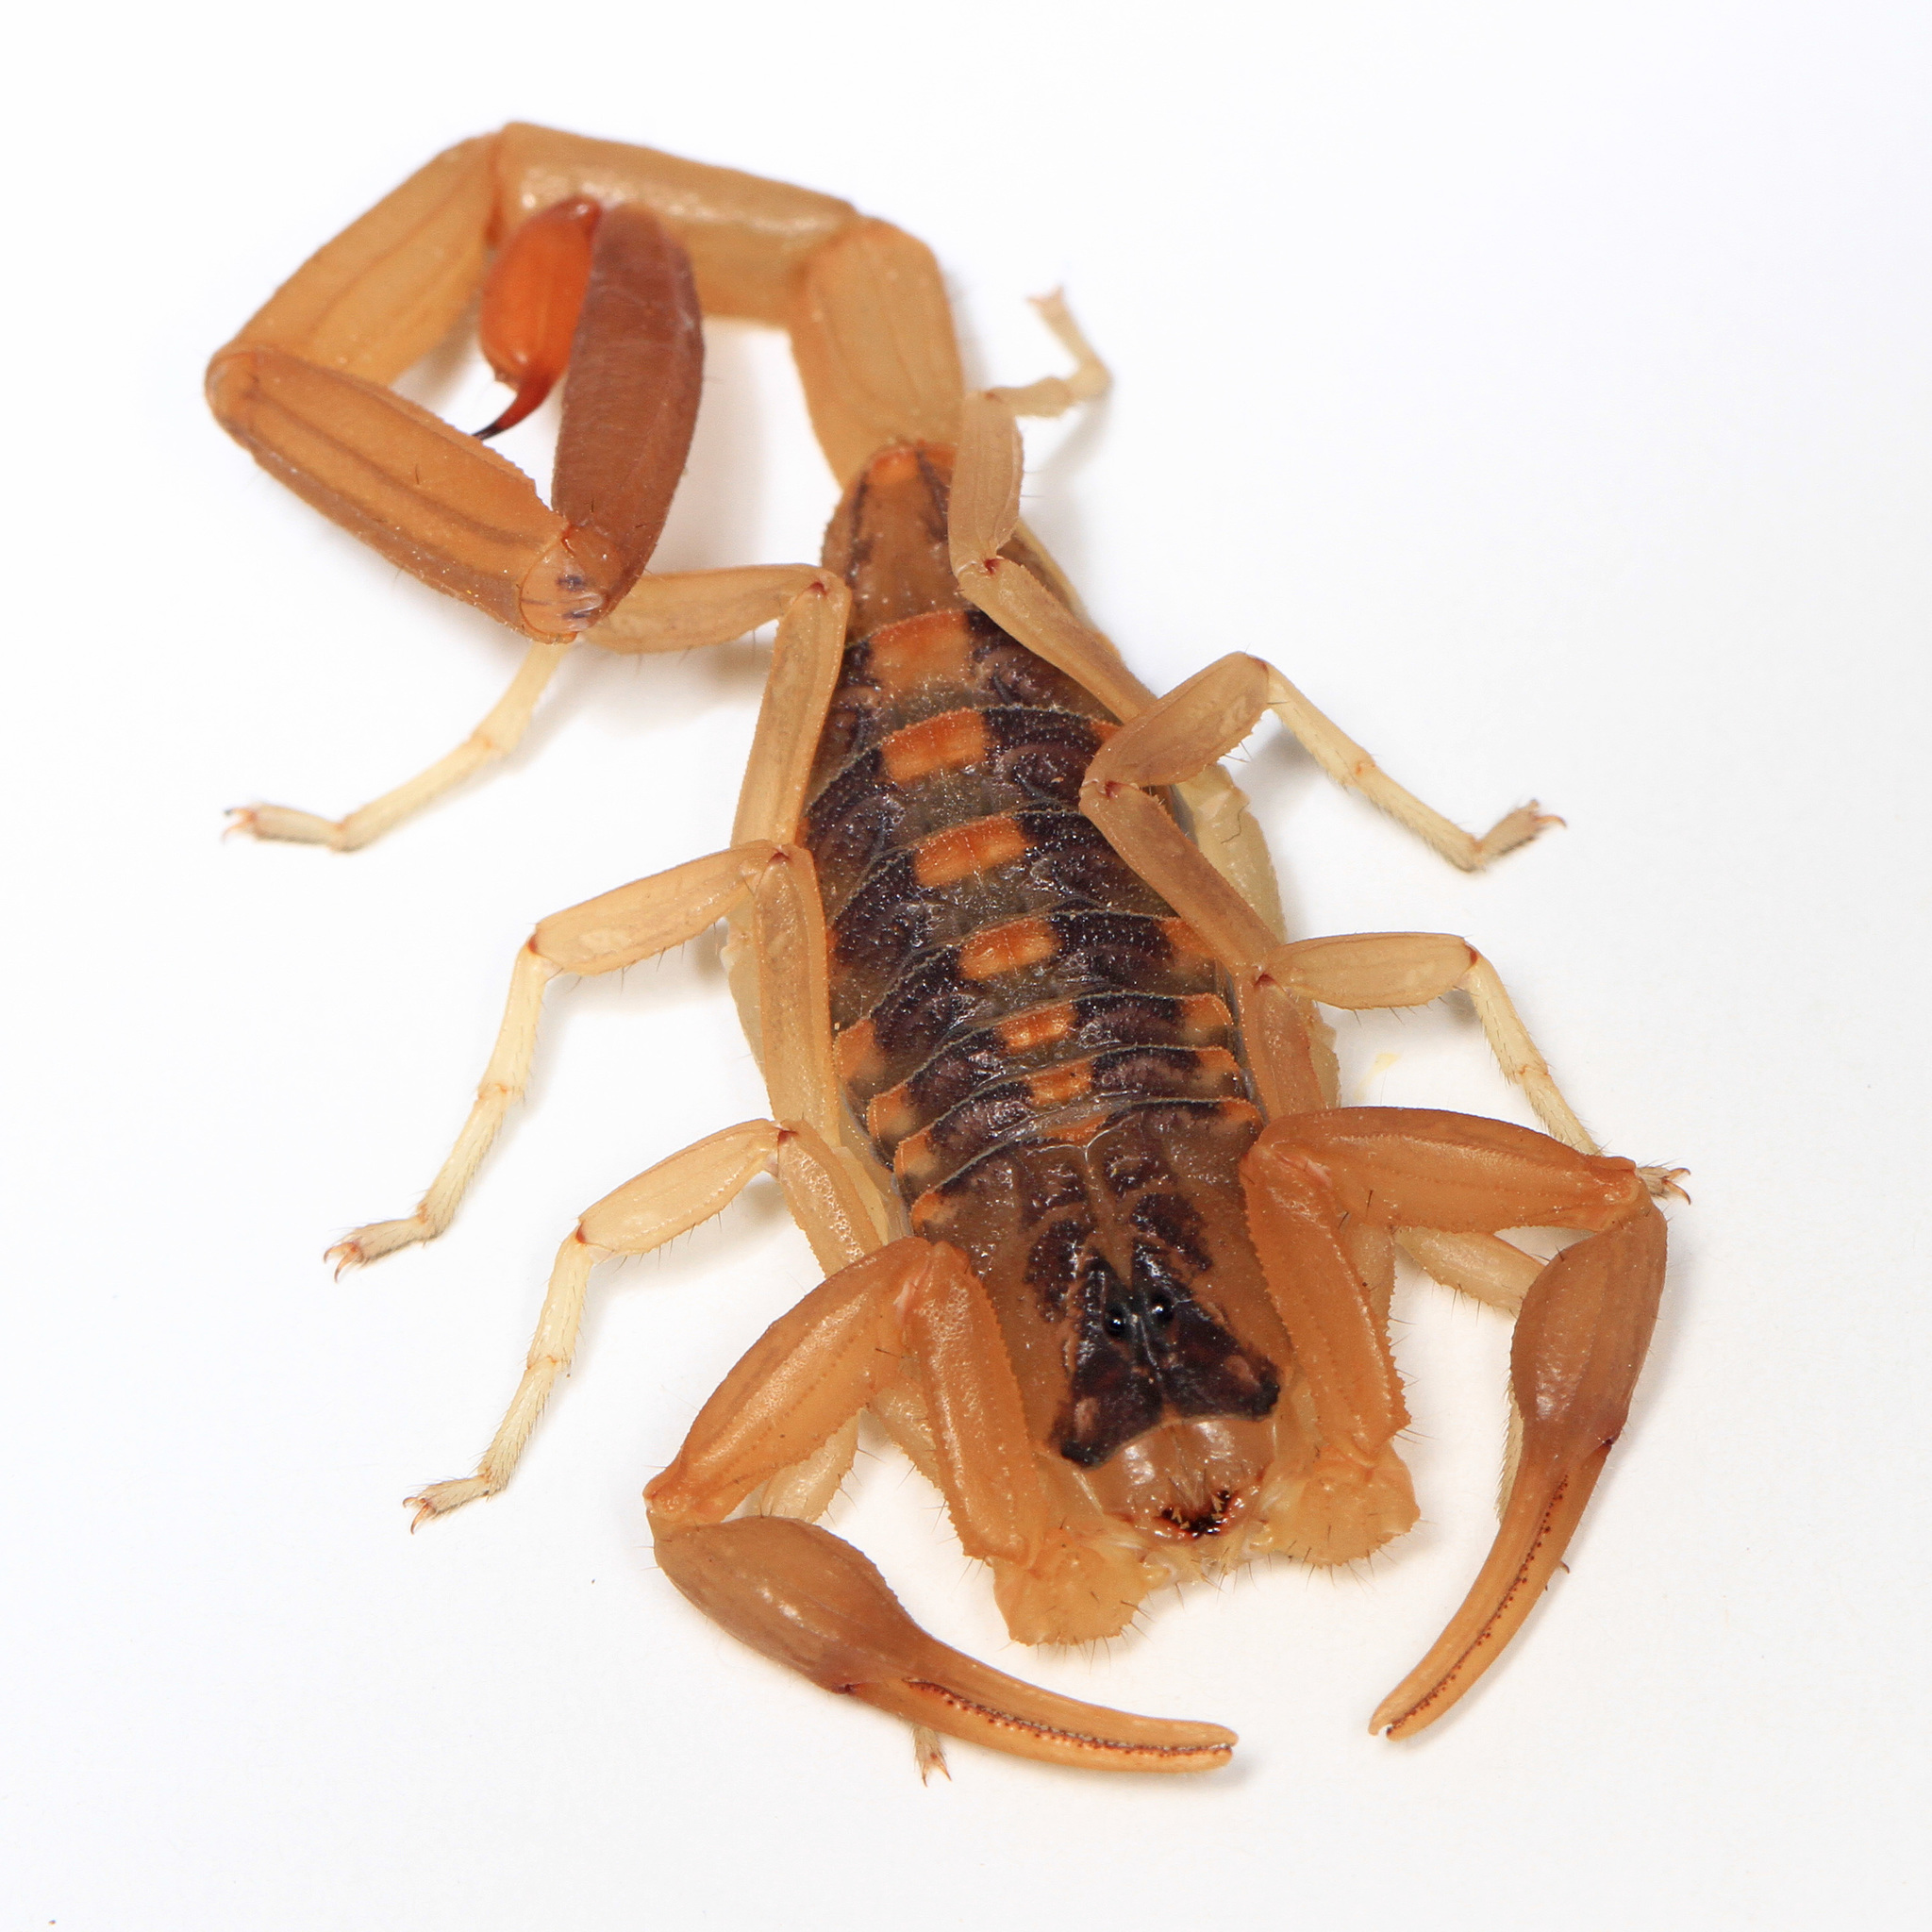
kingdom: Animalia
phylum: Arthropoda
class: Arachnida
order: Scorpiones
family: Buthidae
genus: Centruroides
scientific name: Centruroides vittatus
